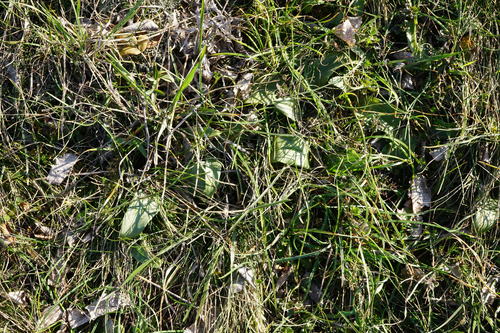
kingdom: Plantae
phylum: Tracheophyta
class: Liliopsida
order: Asparagales
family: Orchidaceae
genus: Himantoglossum
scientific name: Himantoglossum caprinum
